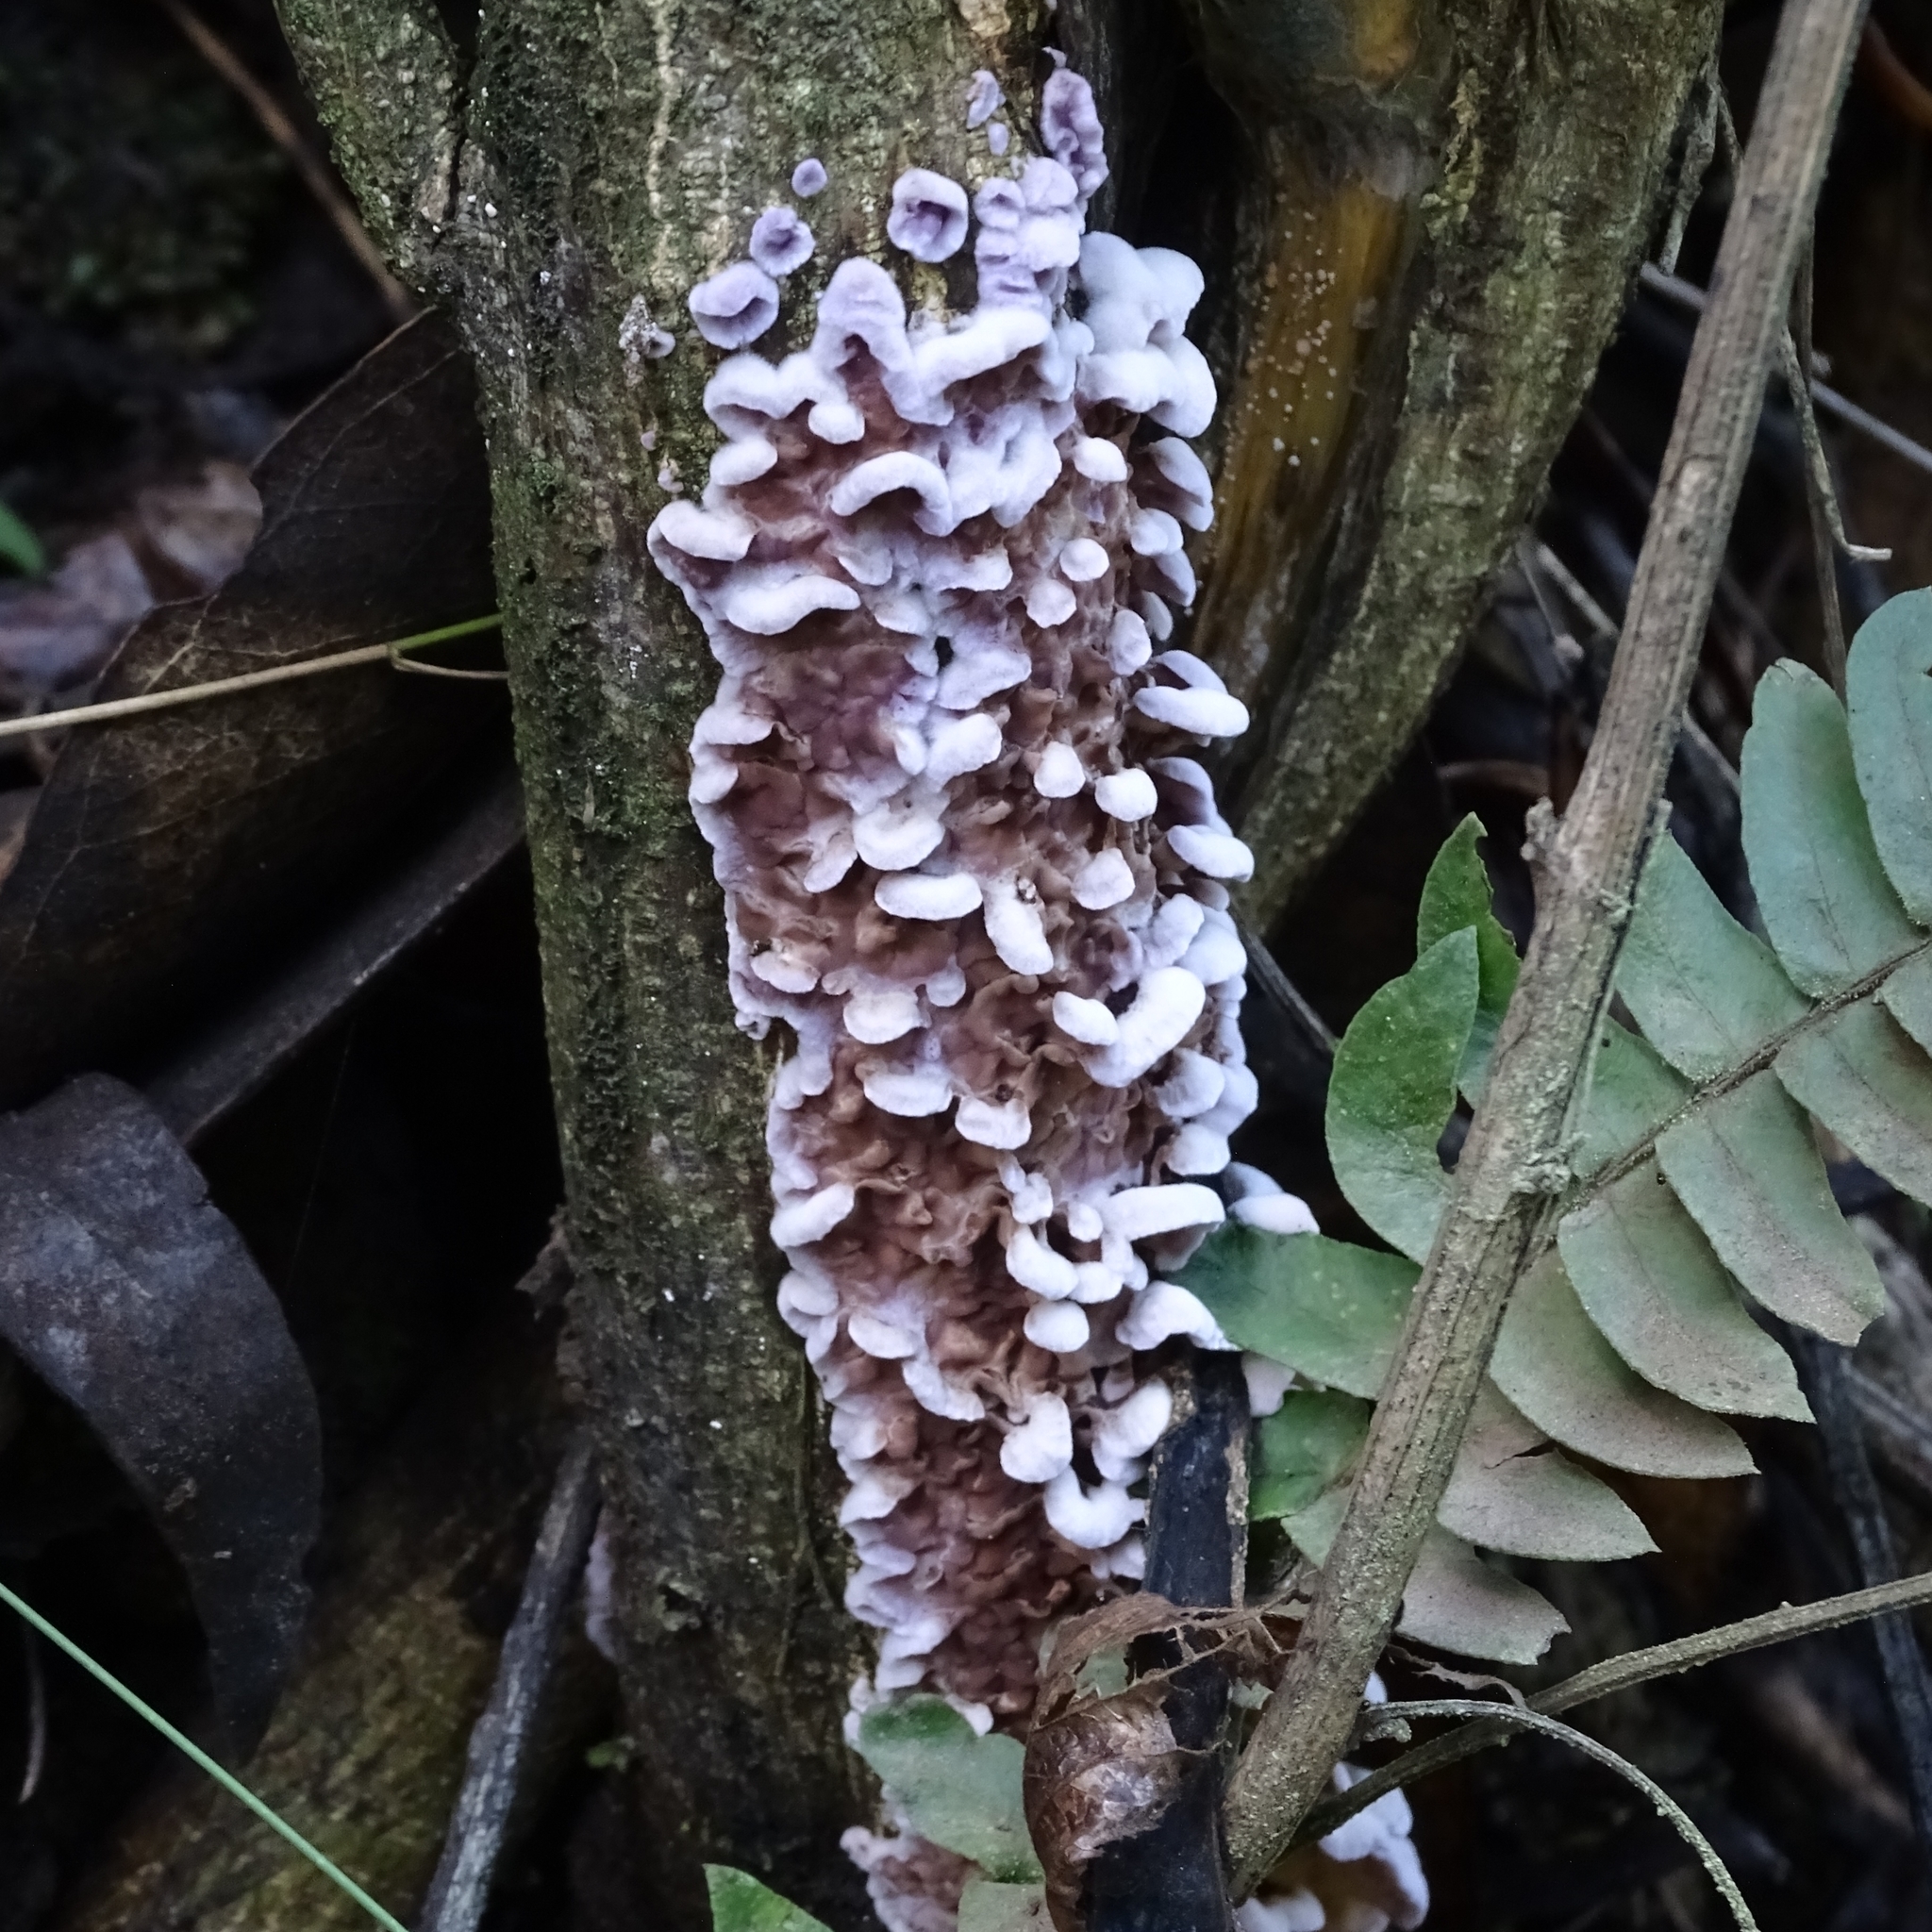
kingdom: Fungi
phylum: Basidiomycota
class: Agaricomycetes
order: Agaricales
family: Cyphellaceae
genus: Chondrostereum
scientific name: Chondrostereum purpureum
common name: Silver leaf disease
